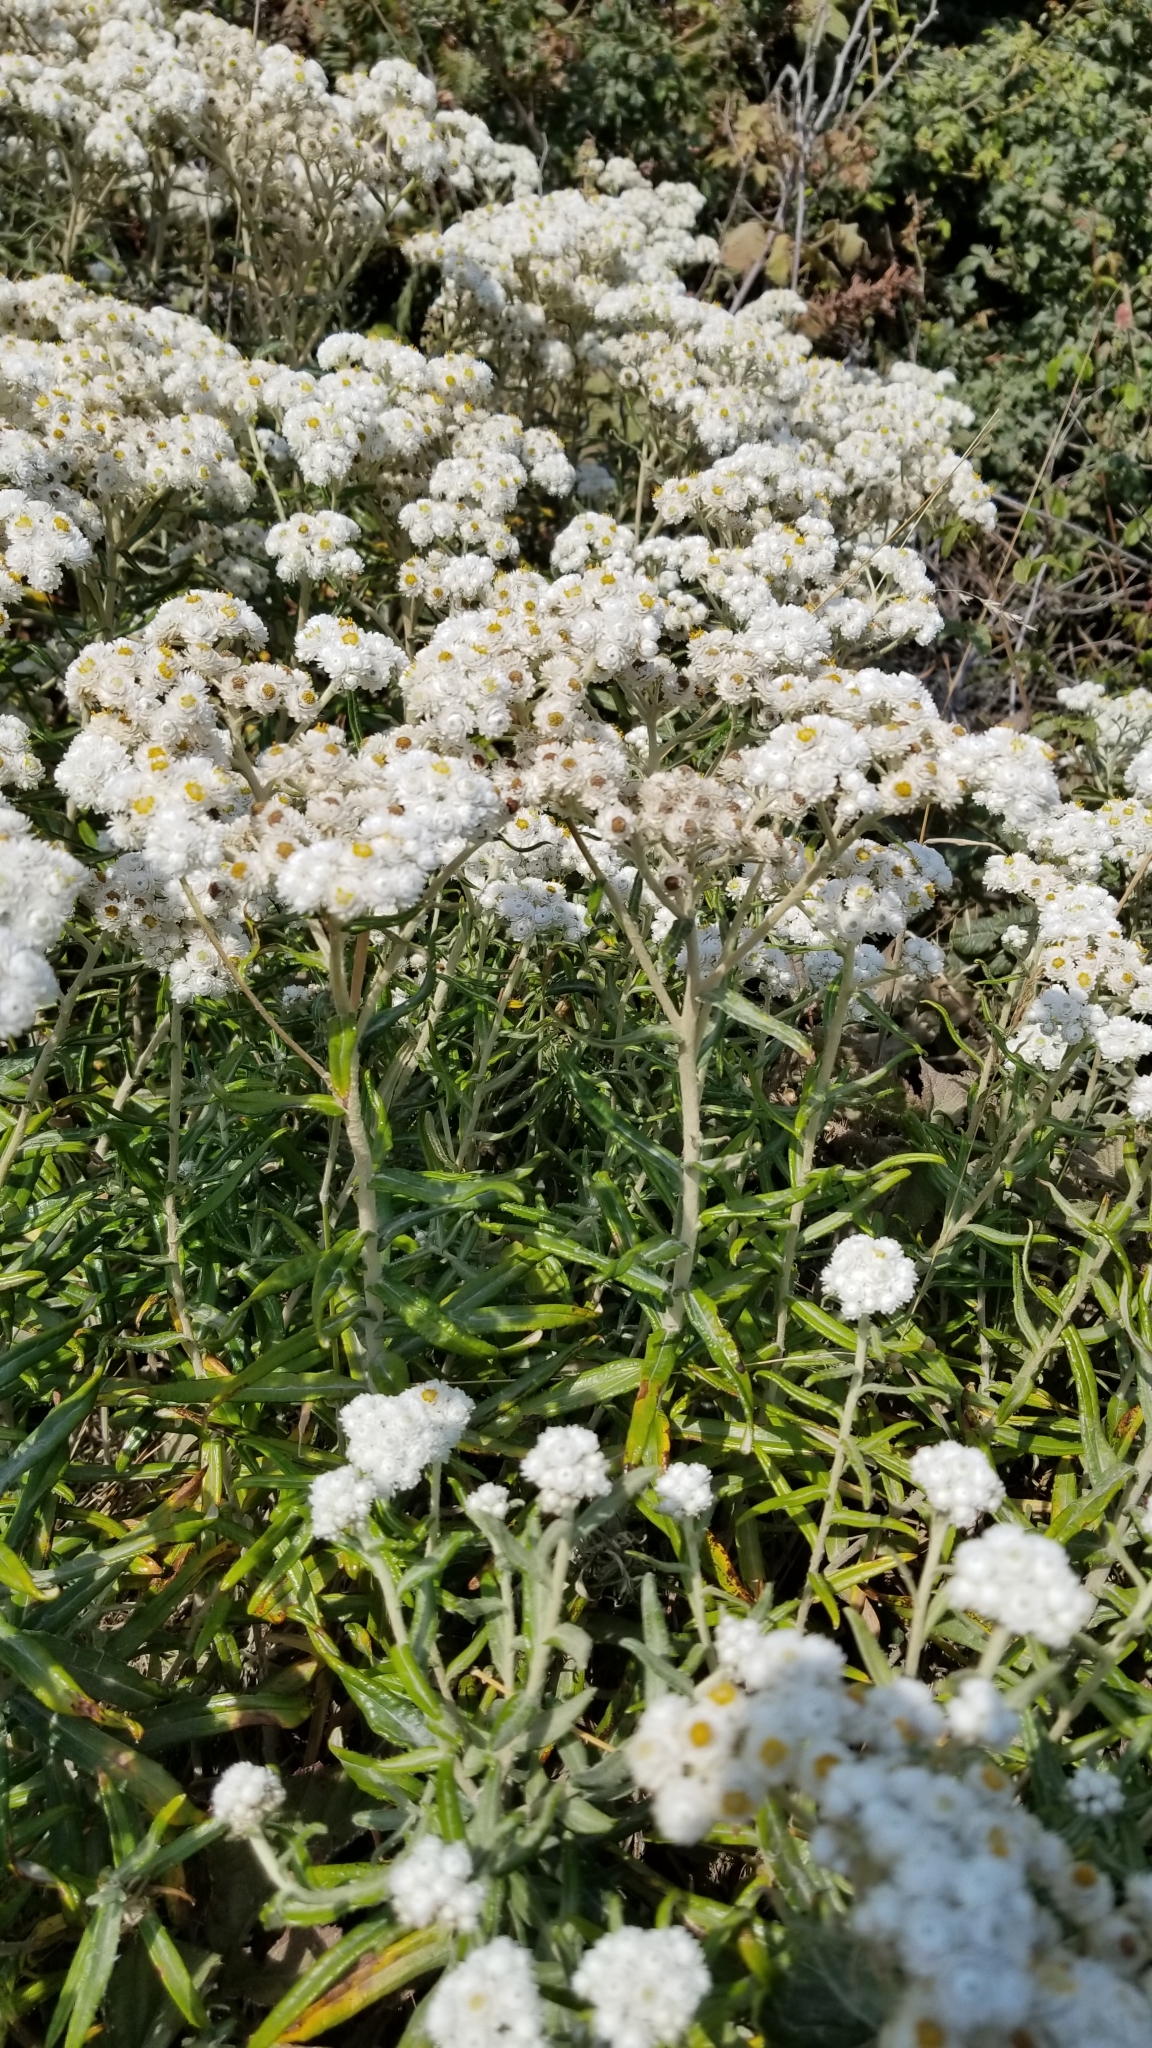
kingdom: Plantae
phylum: Tracheophyta
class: Magnoliopsida
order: Asterales
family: Asteraceae
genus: Anaphalis
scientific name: Anaphalis margaritacea
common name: Pearly everlasting
